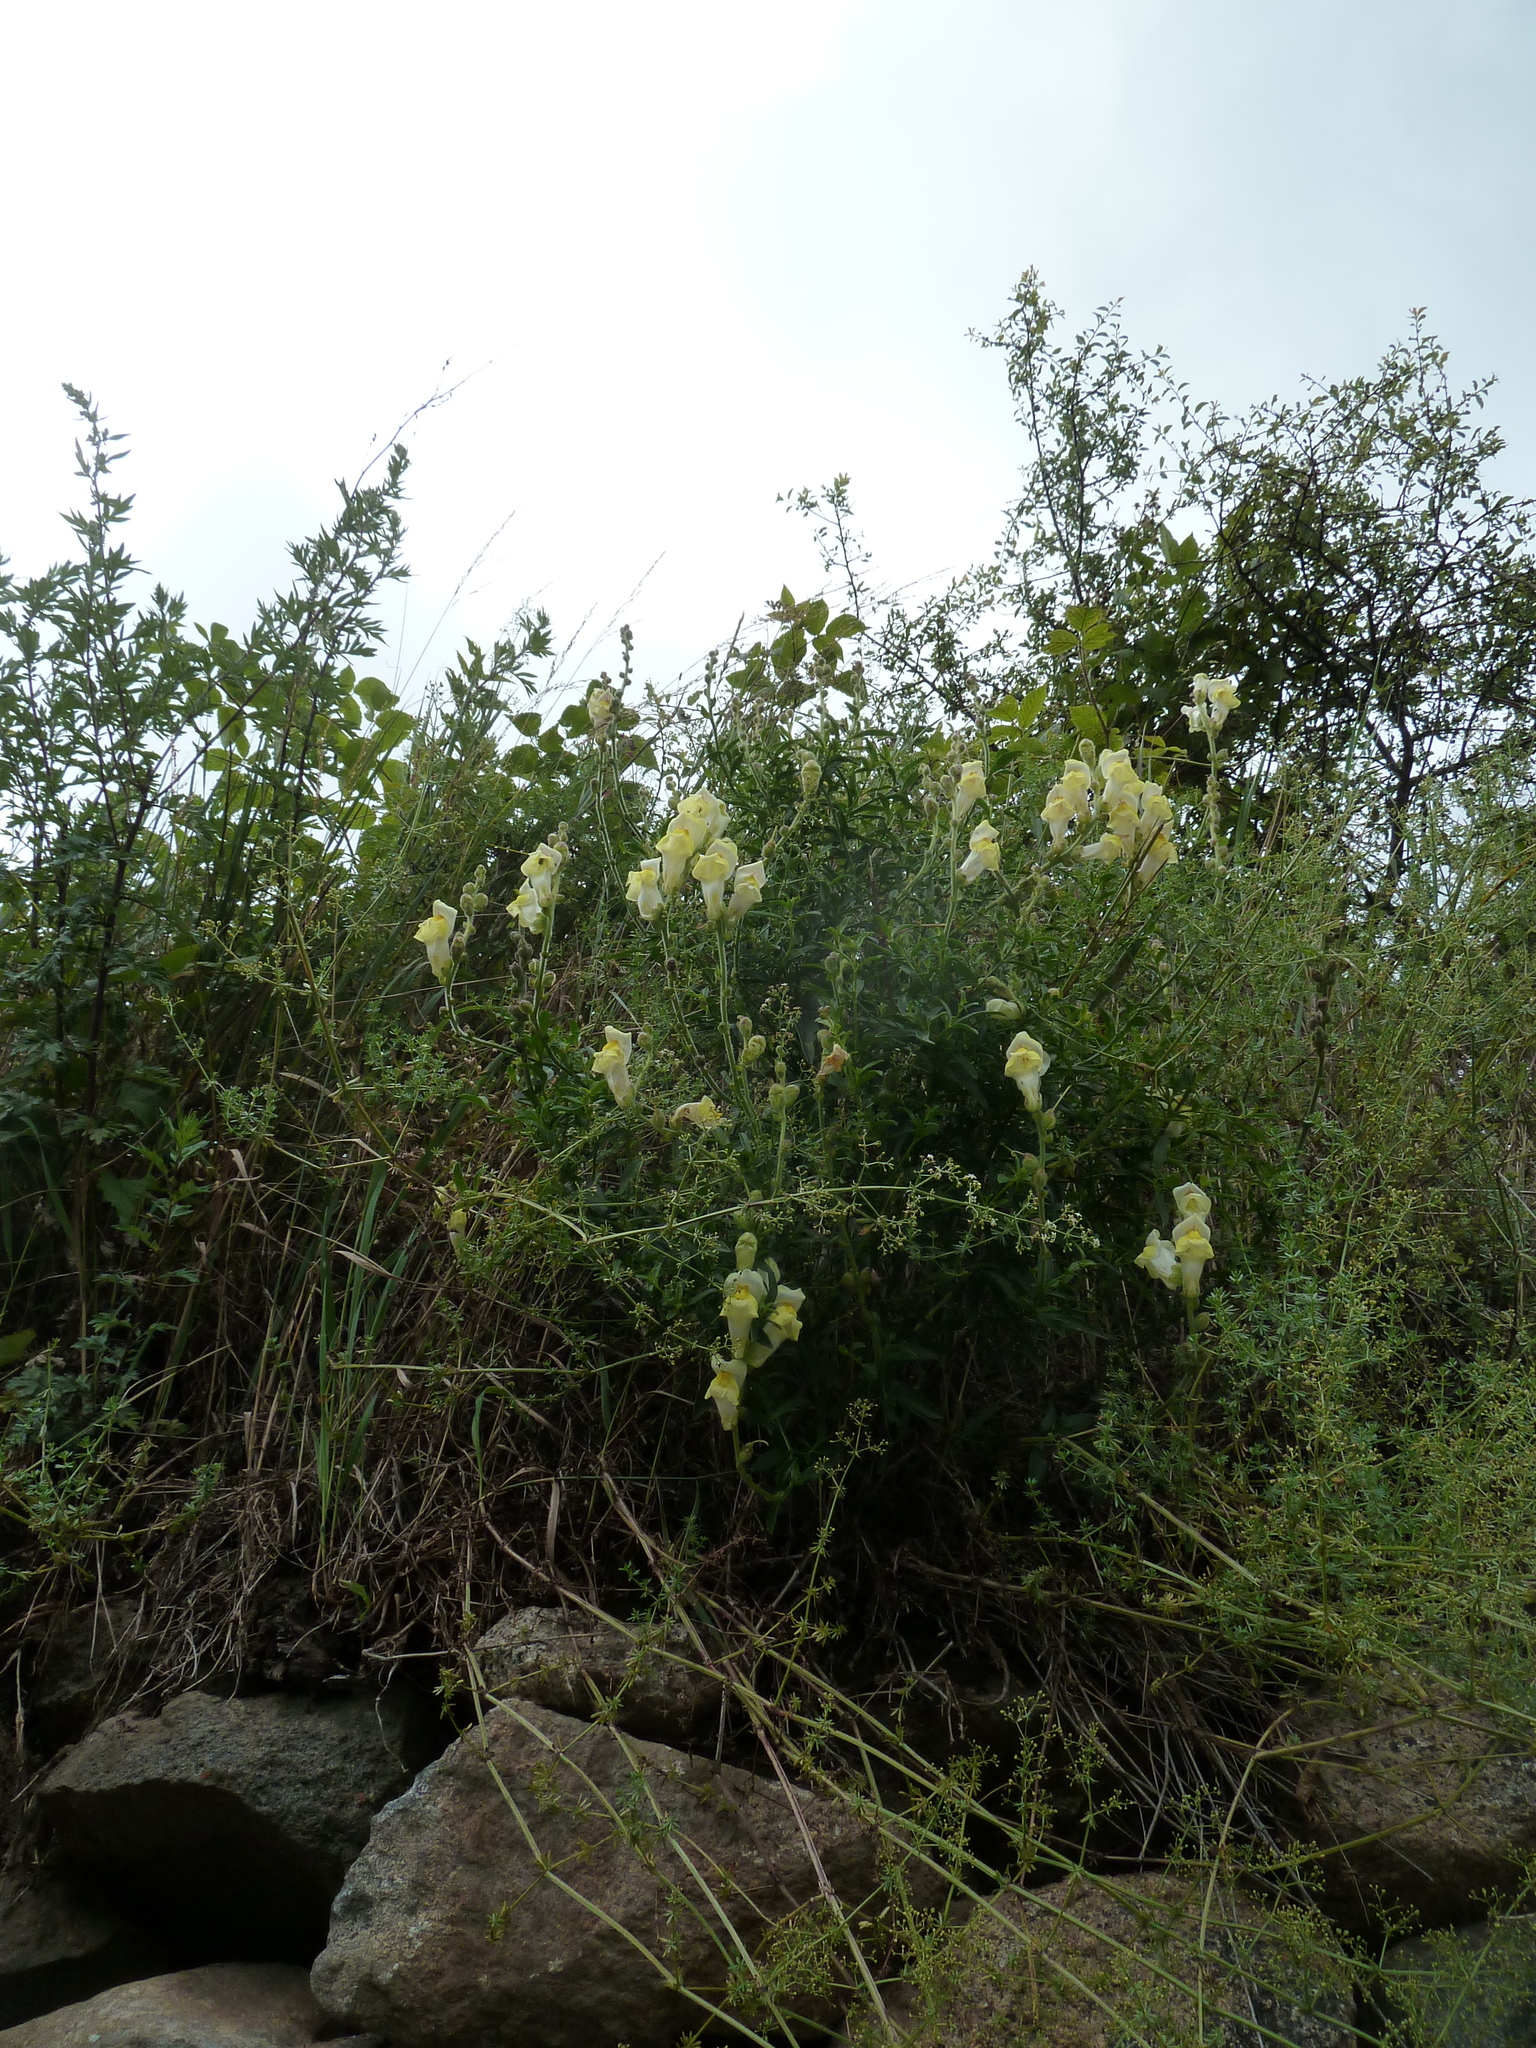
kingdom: Plantae
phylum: Tracheophyta
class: Magnoliopsida
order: Lamiales
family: Plantaginaceae
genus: Antirrhinum
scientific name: Antirrhinum majus
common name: Snapdragon
